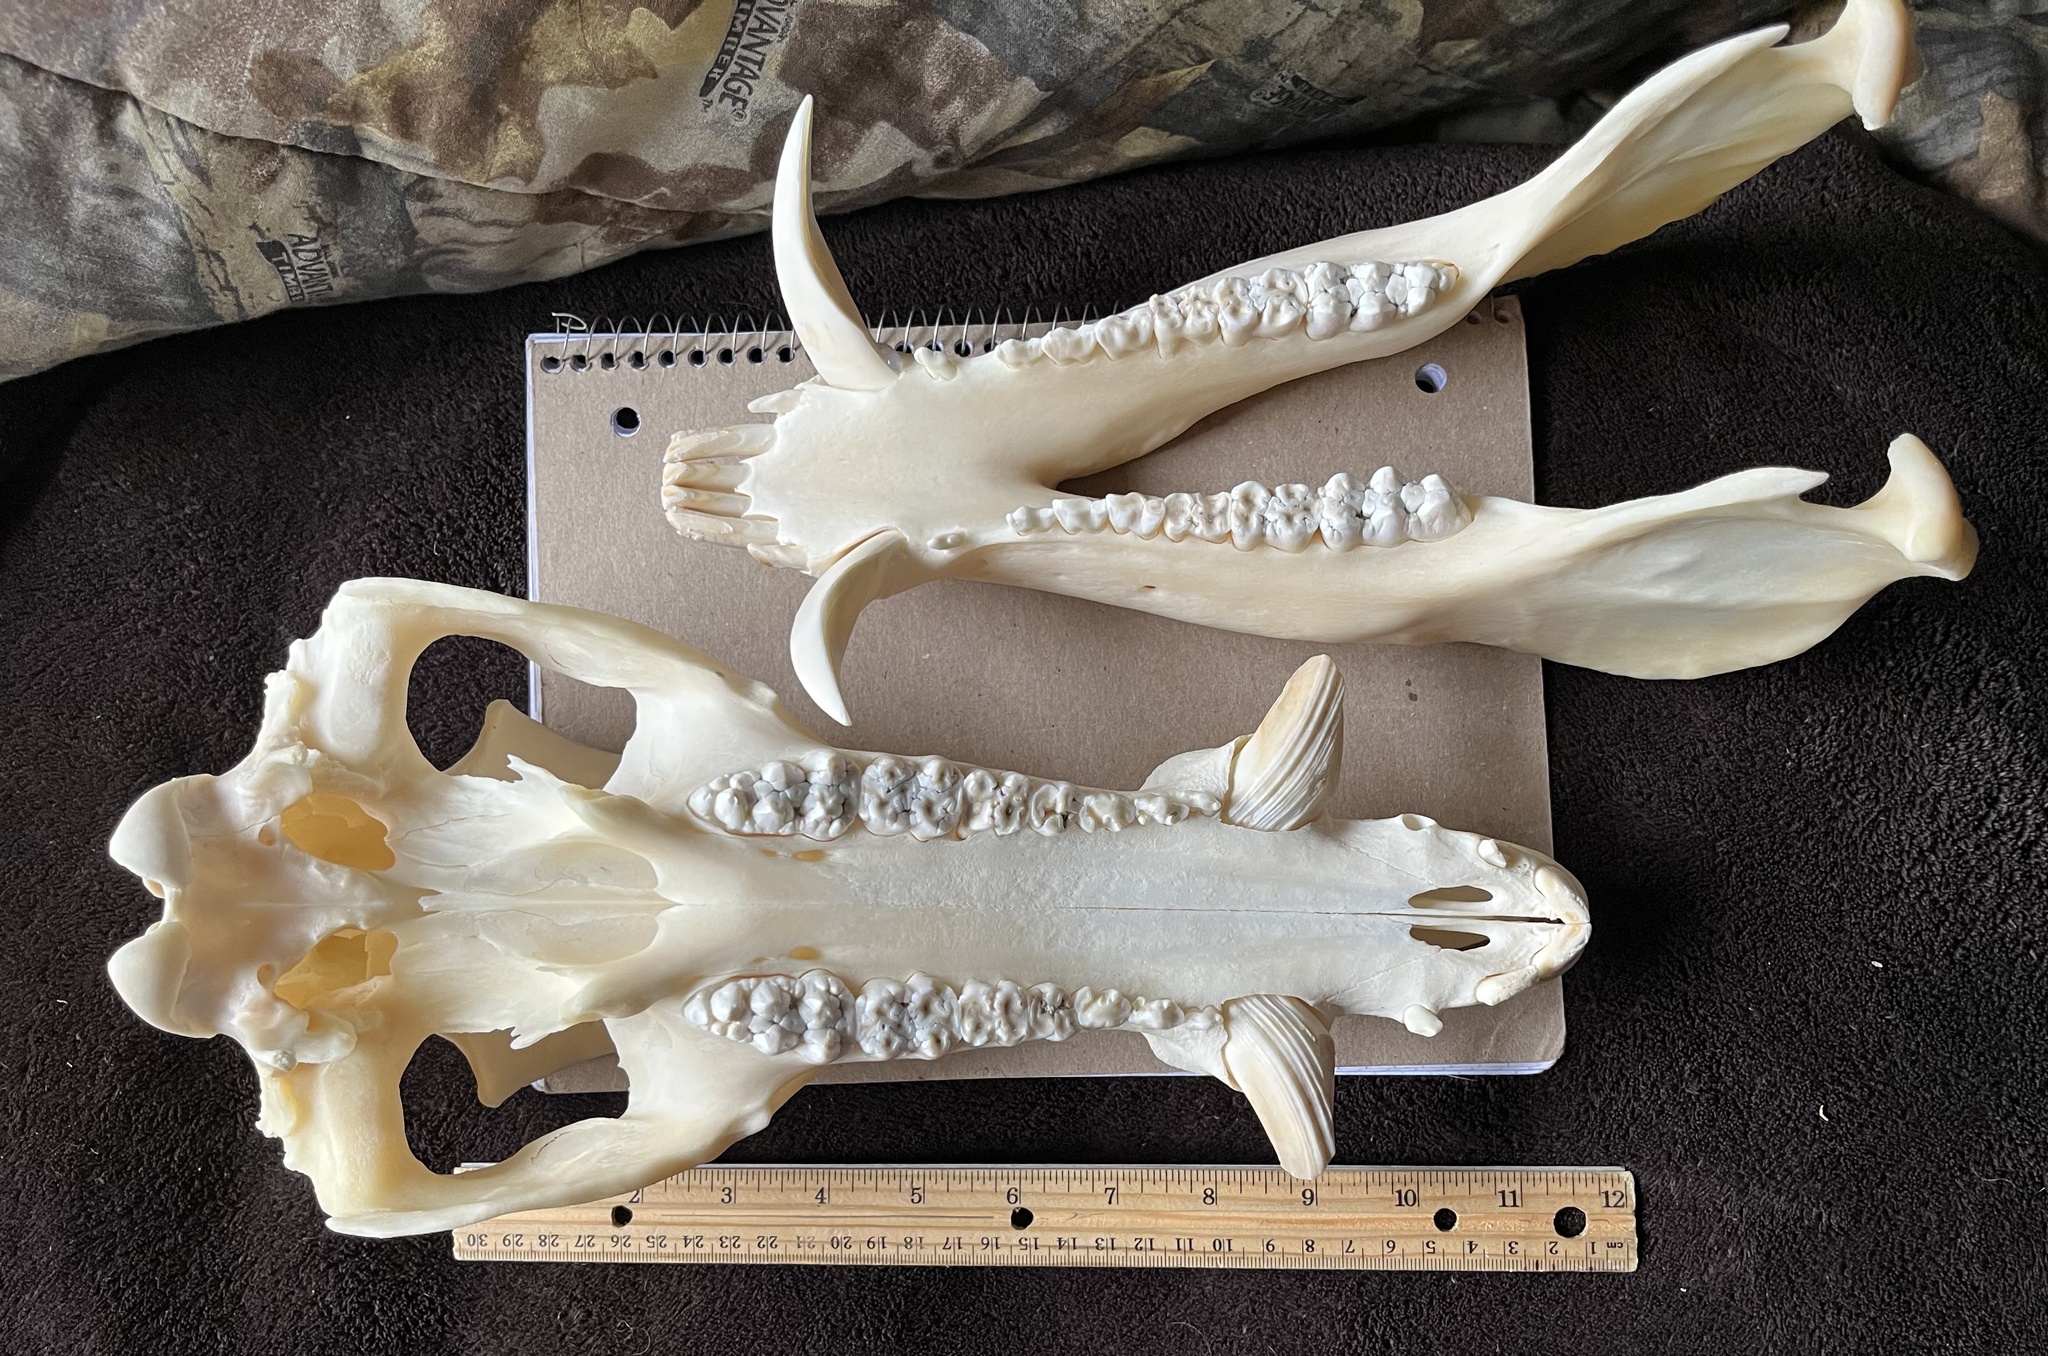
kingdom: Animalia
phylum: Chordata
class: Mammalia
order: Artiodactyla
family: Suidae
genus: Sus
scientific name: Sus scrofa
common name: Wild boar
